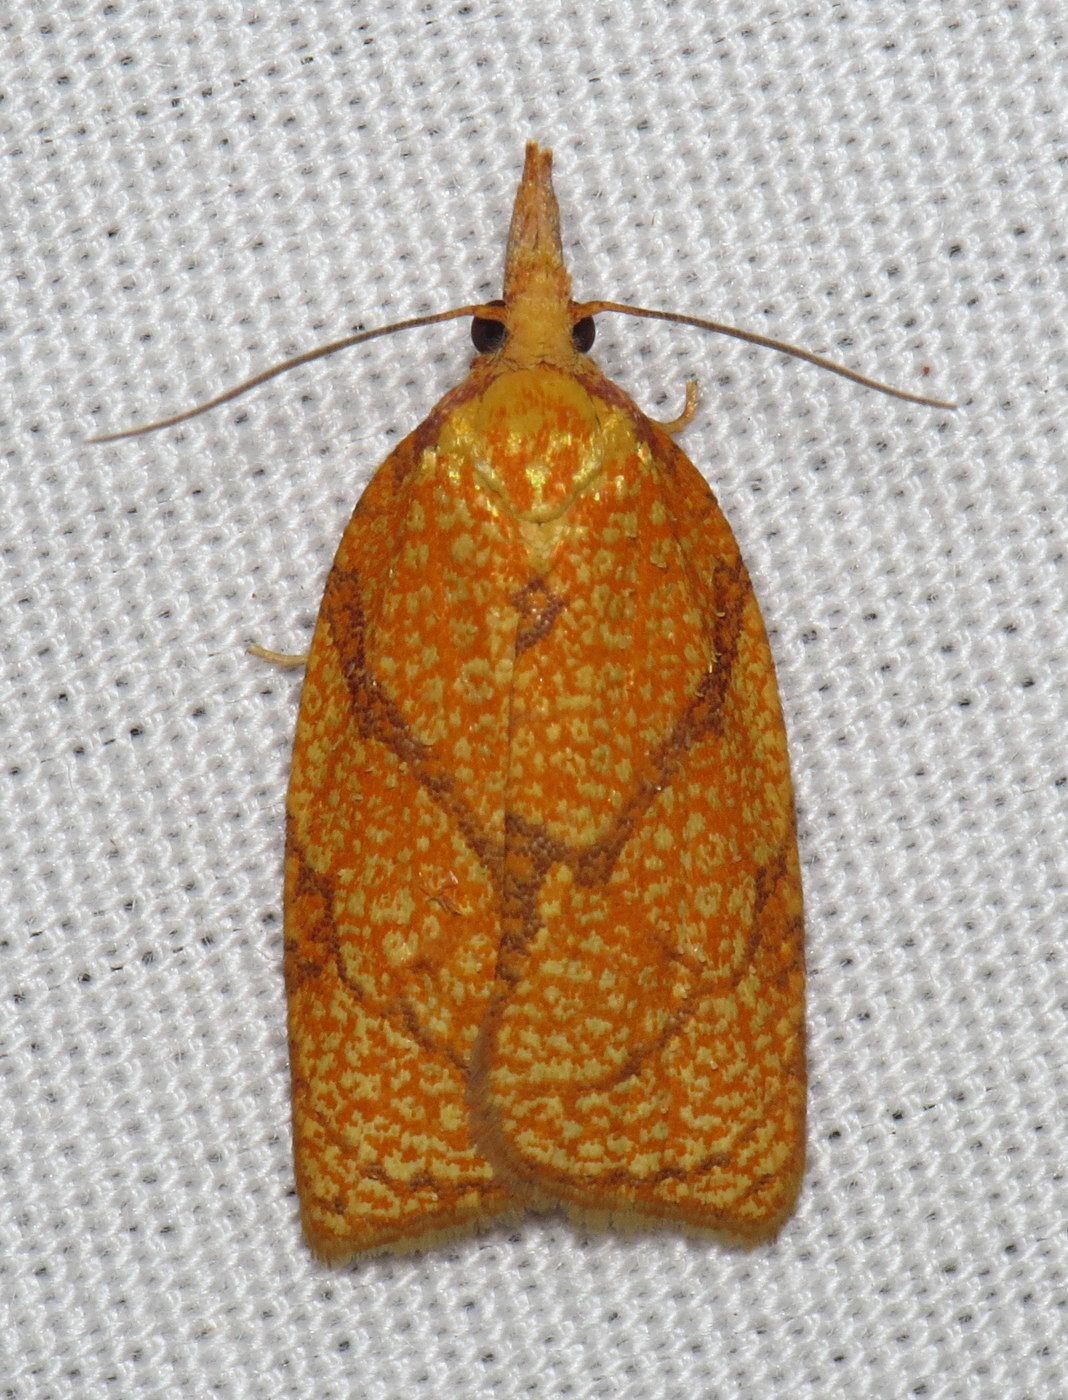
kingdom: Animalia
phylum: Arthropoda
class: Insecta
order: Lepidoptera
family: Tortricidae
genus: Cenopis
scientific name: Cenopis reticulatana
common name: Reticulated fruitworm moth
